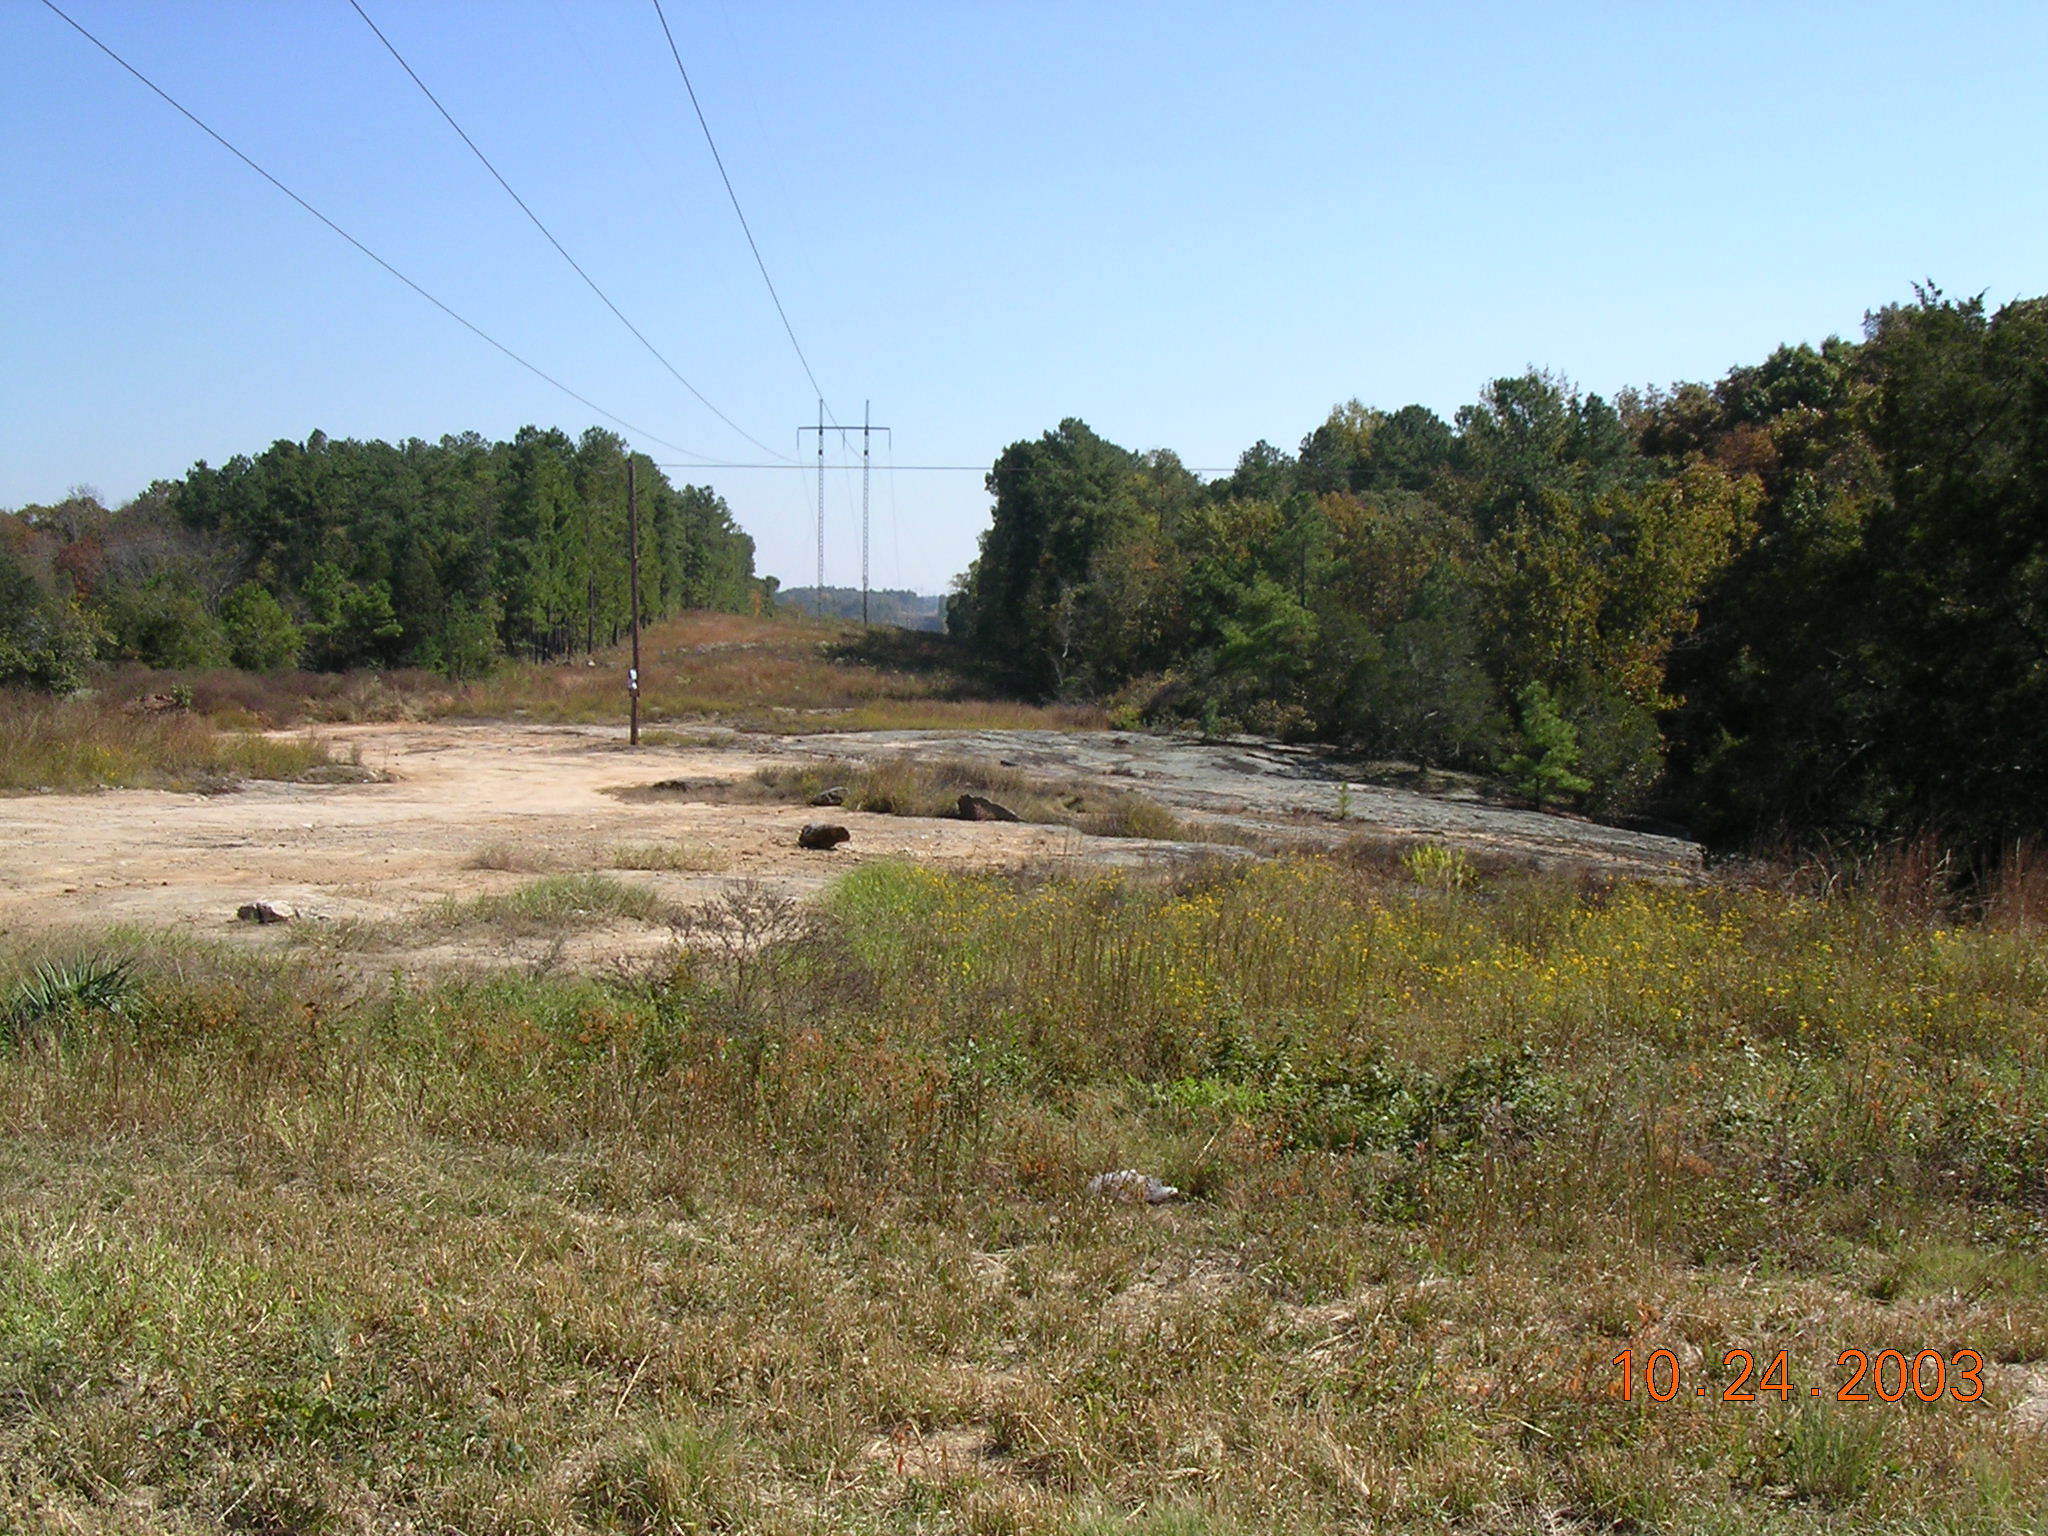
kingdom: Plantae
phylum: Tracheophyta
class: Magnoliopsida
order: Asterales
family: Asteraceae
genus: Helianthus
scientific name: Helianthus porteri
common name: Porter's sunflower
